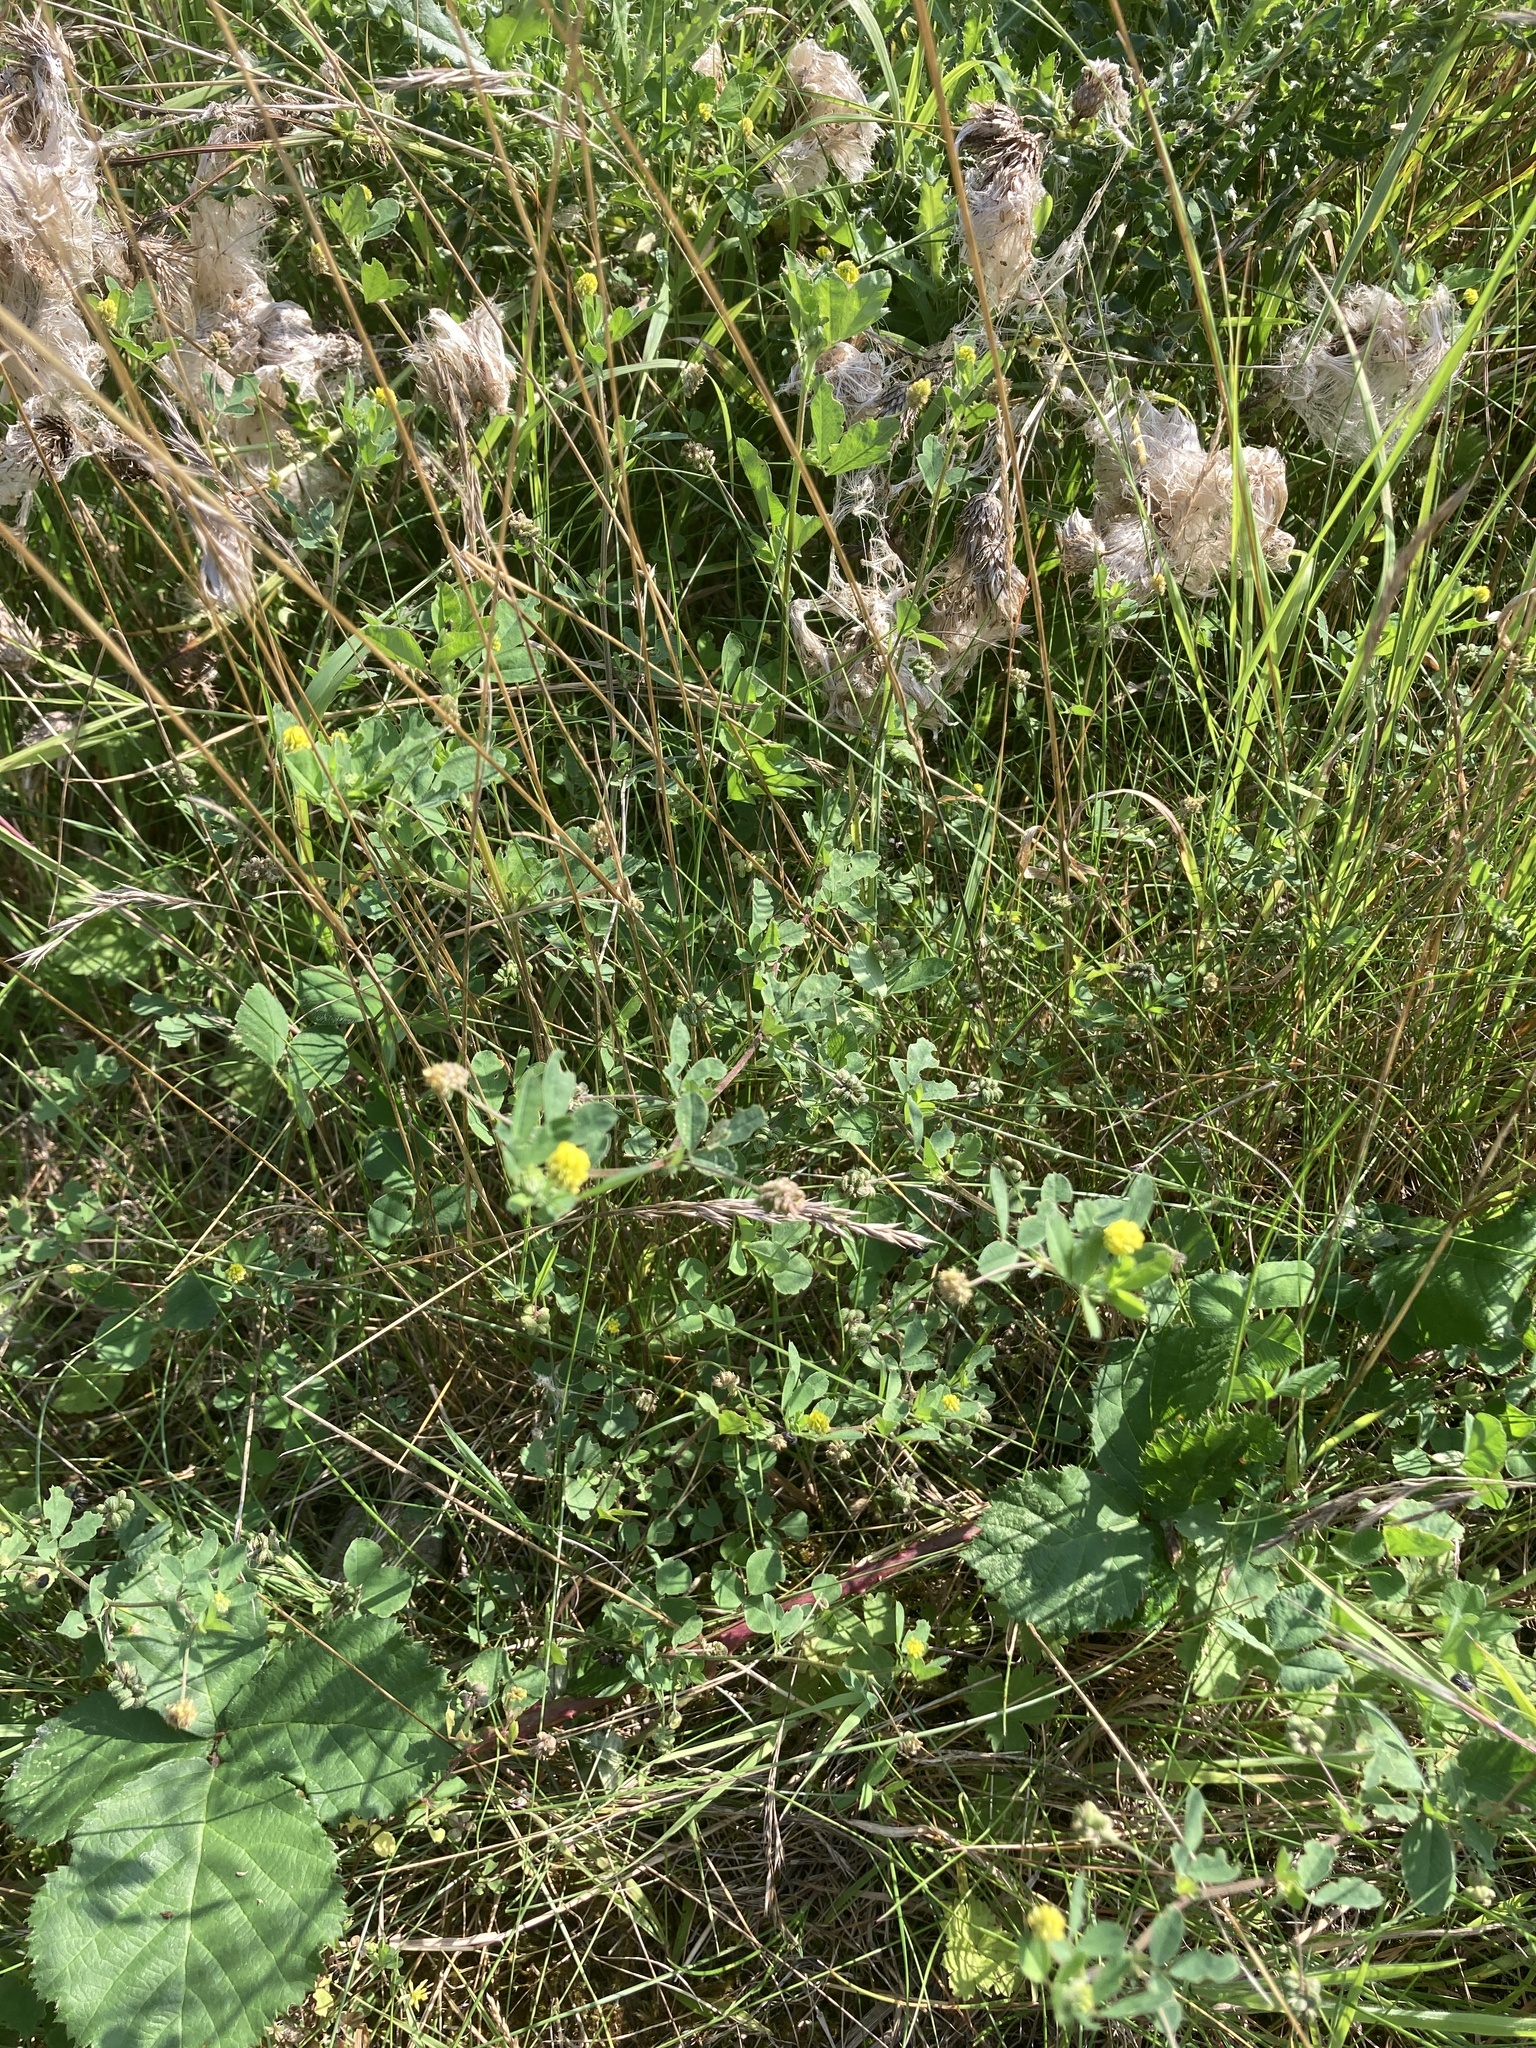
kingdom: Plantae
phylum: Tracheophyta
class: Magnoliopsida
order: Fabales
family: Fabaceae
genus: Medicago
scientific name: Medicago lupulina
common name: Black medick
